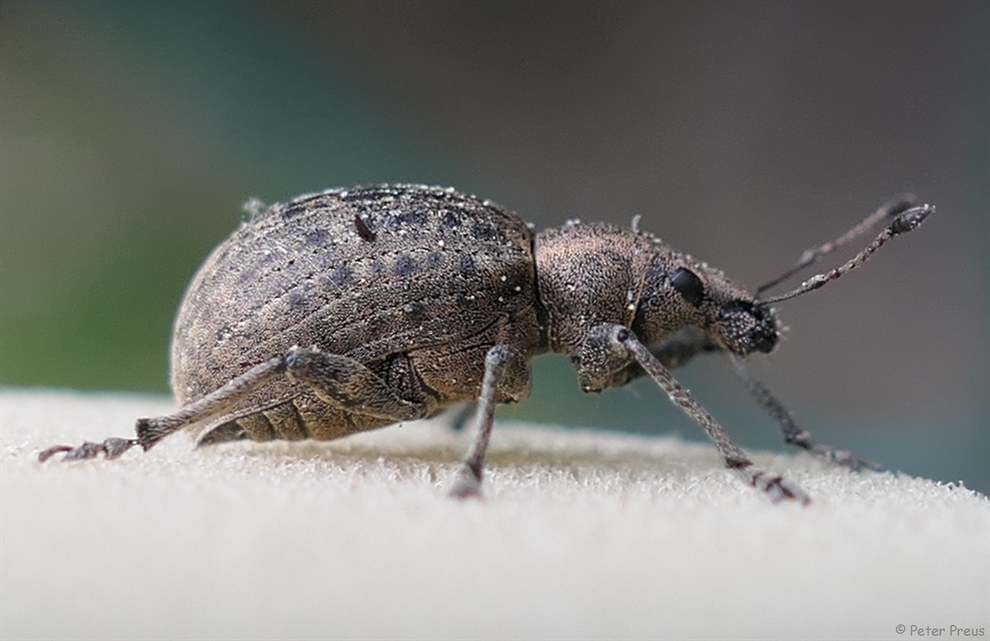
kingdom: Animalia
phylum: Arthropoda
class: Insecta
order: Coleoptera
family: Curculionidae
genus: Liophloeus
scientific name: Liophloeus tessulatus
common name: Weevil
